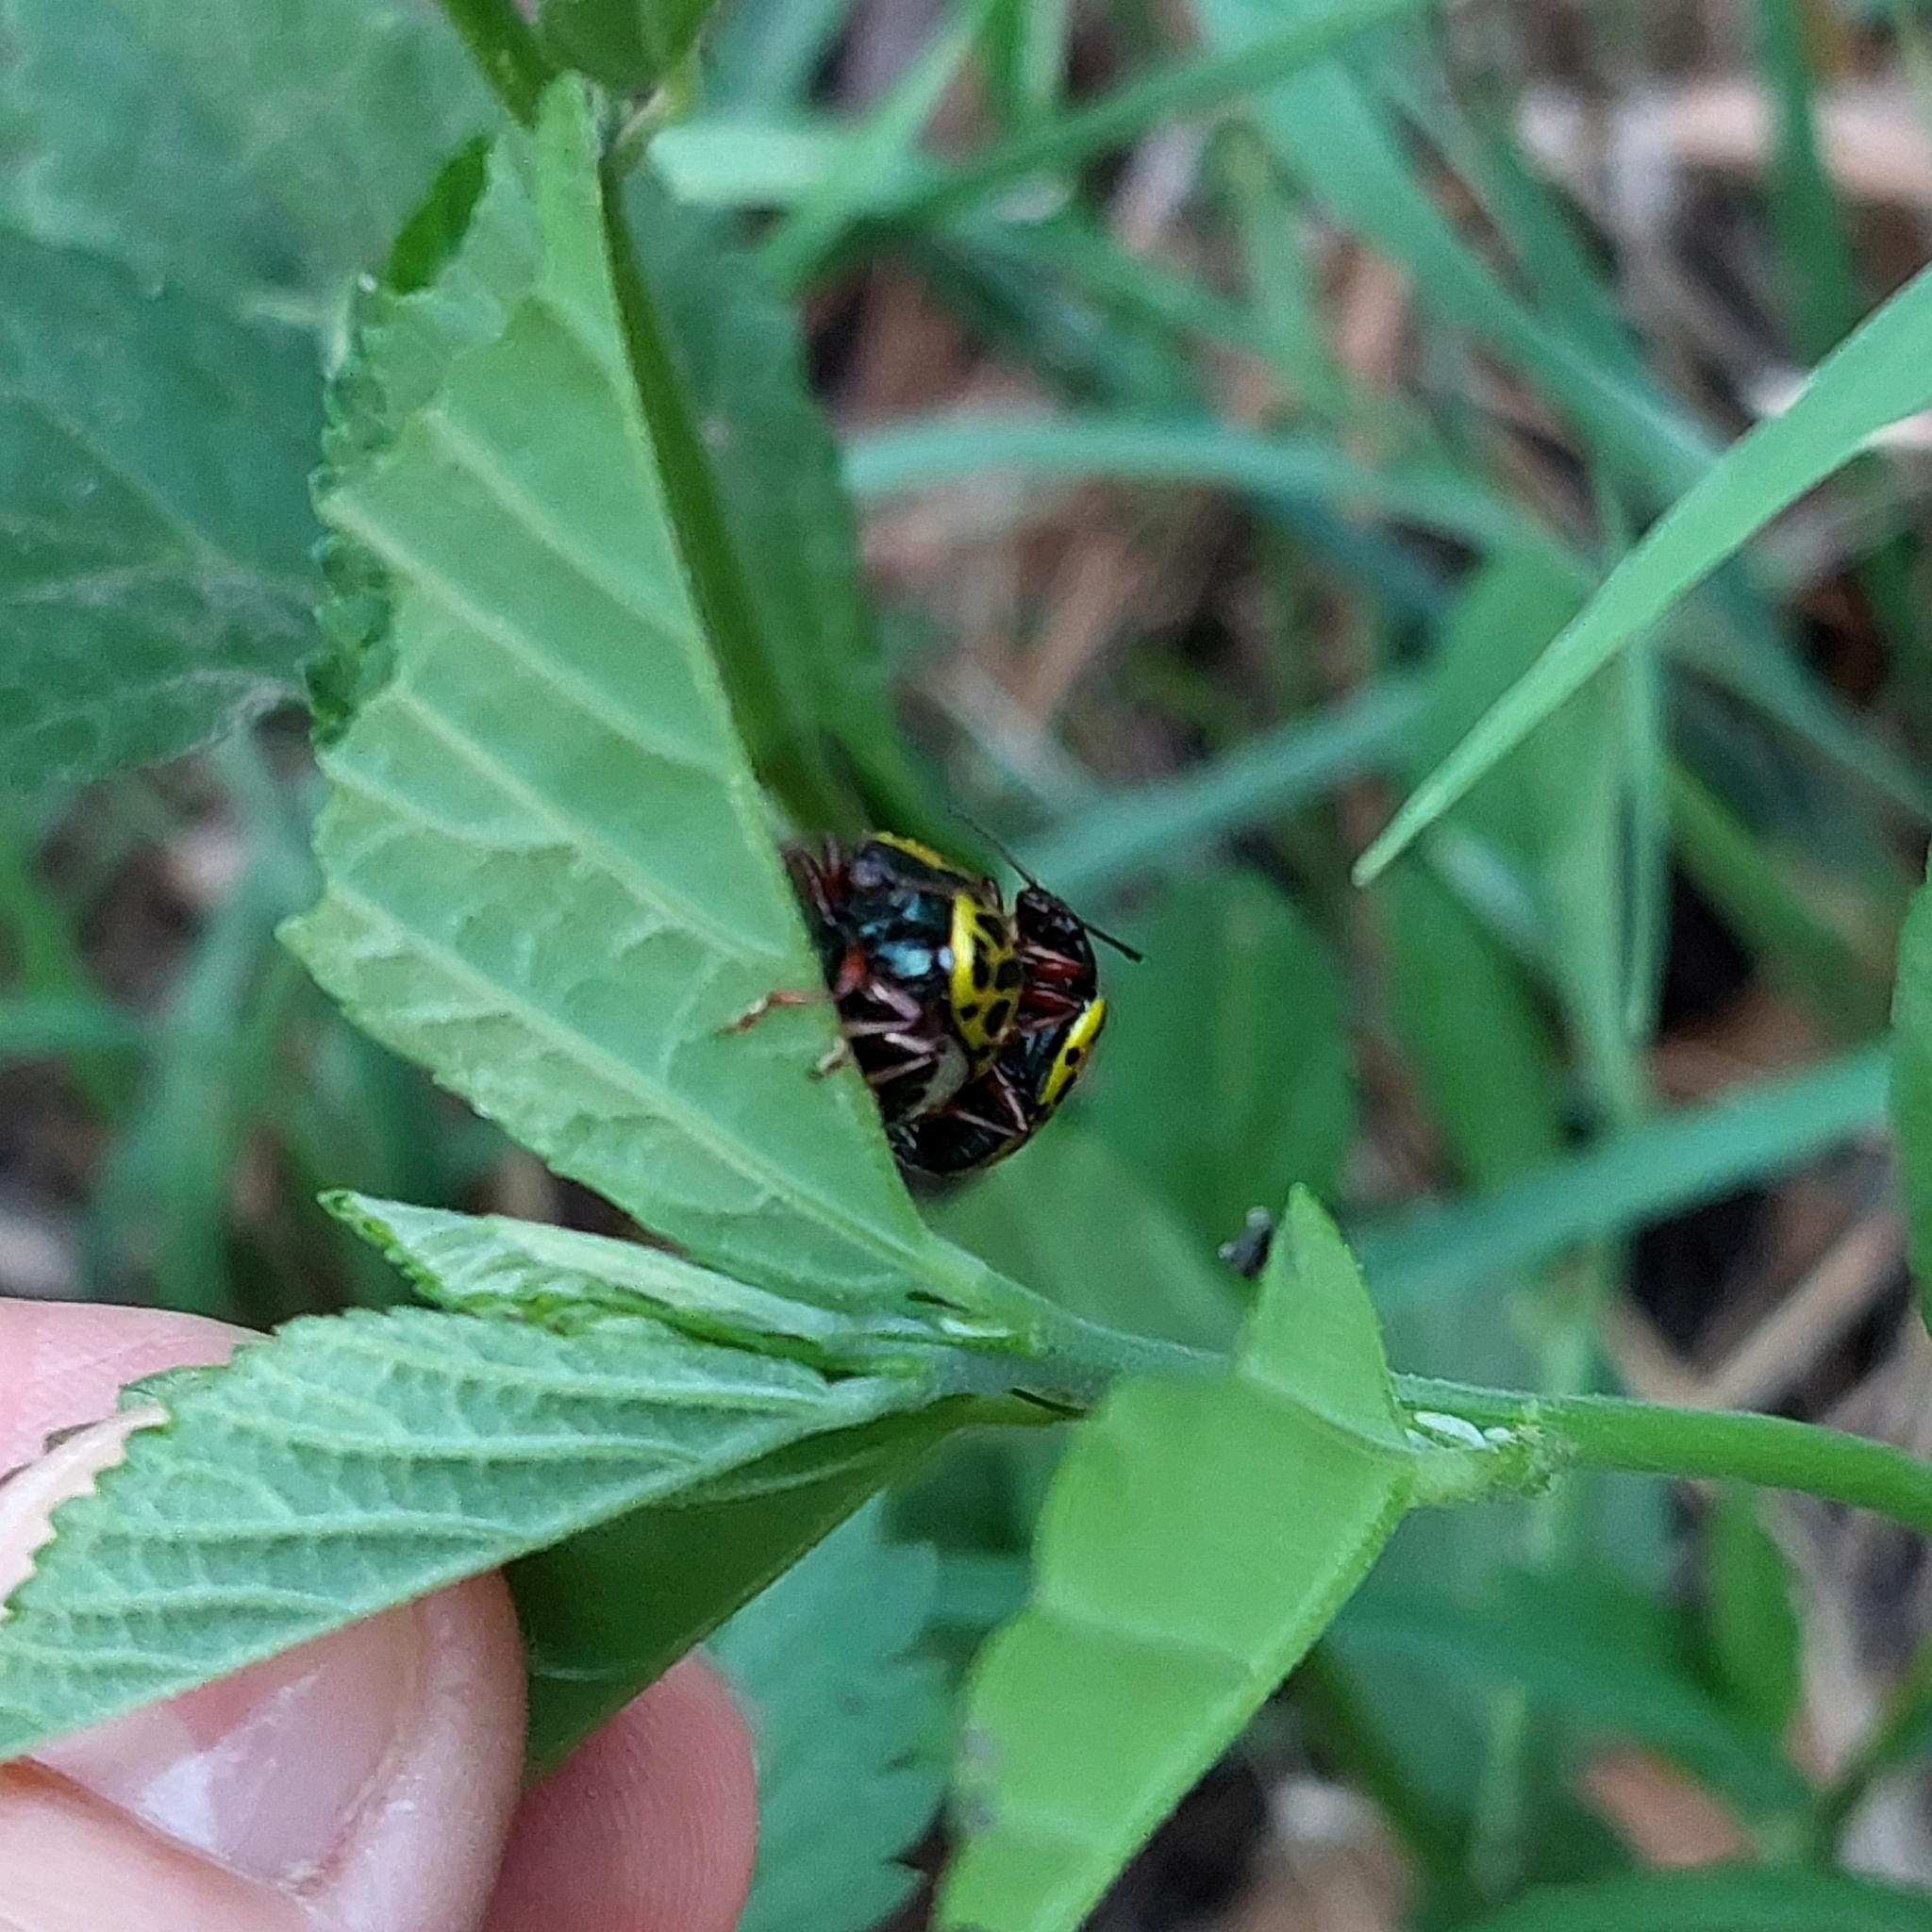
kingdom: Animalia
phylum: Arthropoda
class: Insecta
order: Coleoptera
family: Chrysomelidae
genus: Calligrapha
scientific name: Calligrapha polyspila
